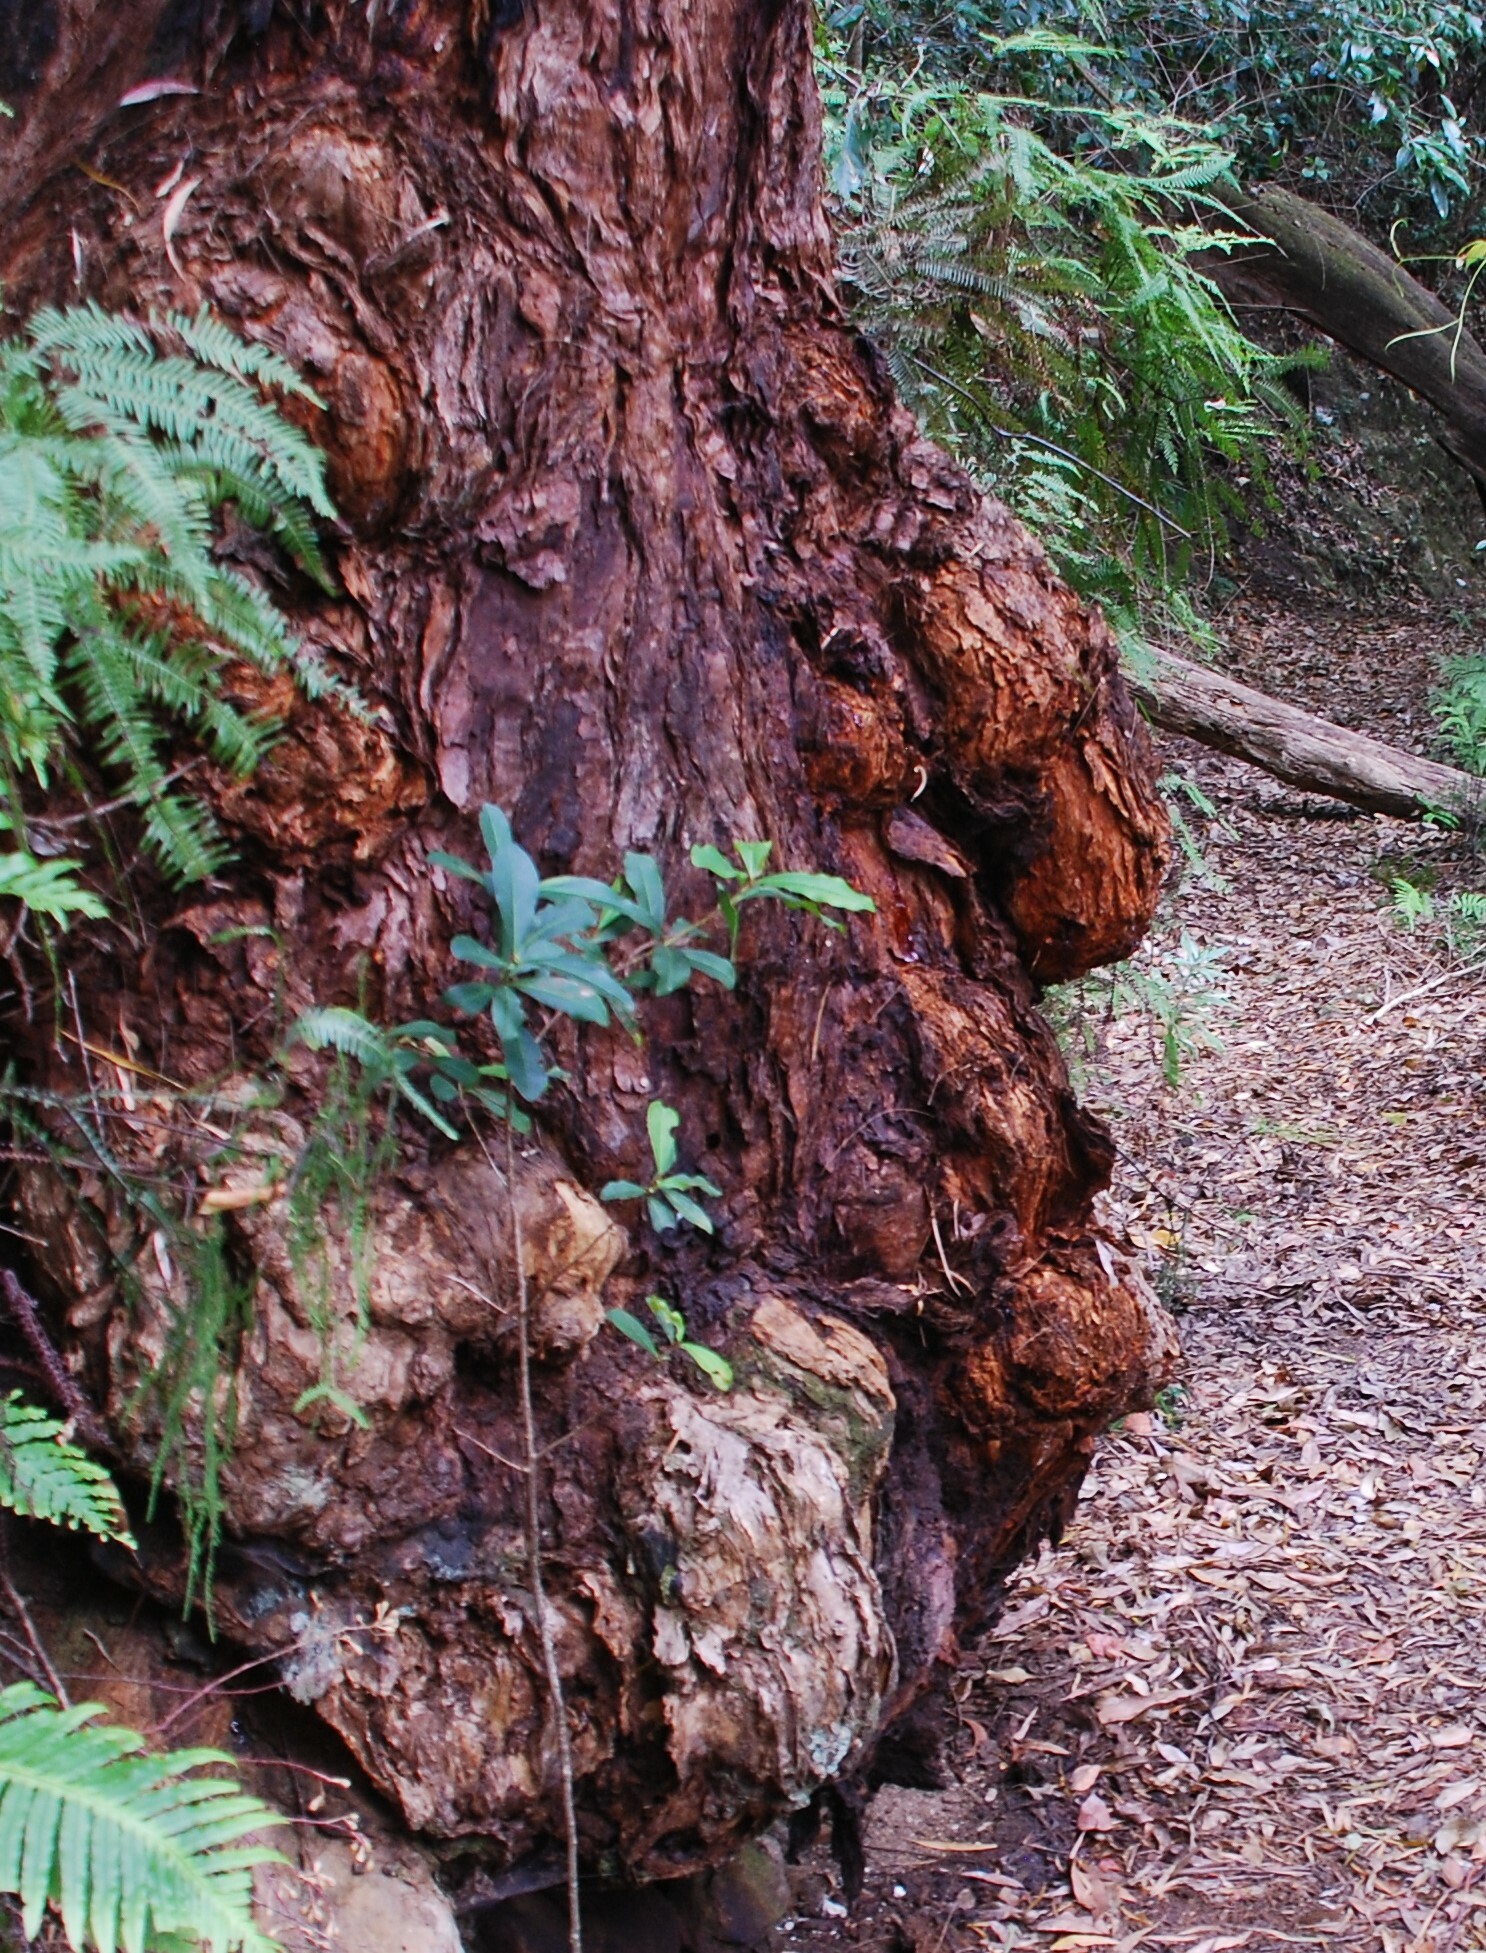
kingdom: Plantae
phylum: Tracheophyta
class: Magnoliopsida
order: Myrtales
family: Myrtaceae
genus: Eucalyptus
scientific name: Eucalyptus andrewsii
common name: New england blackbutt
